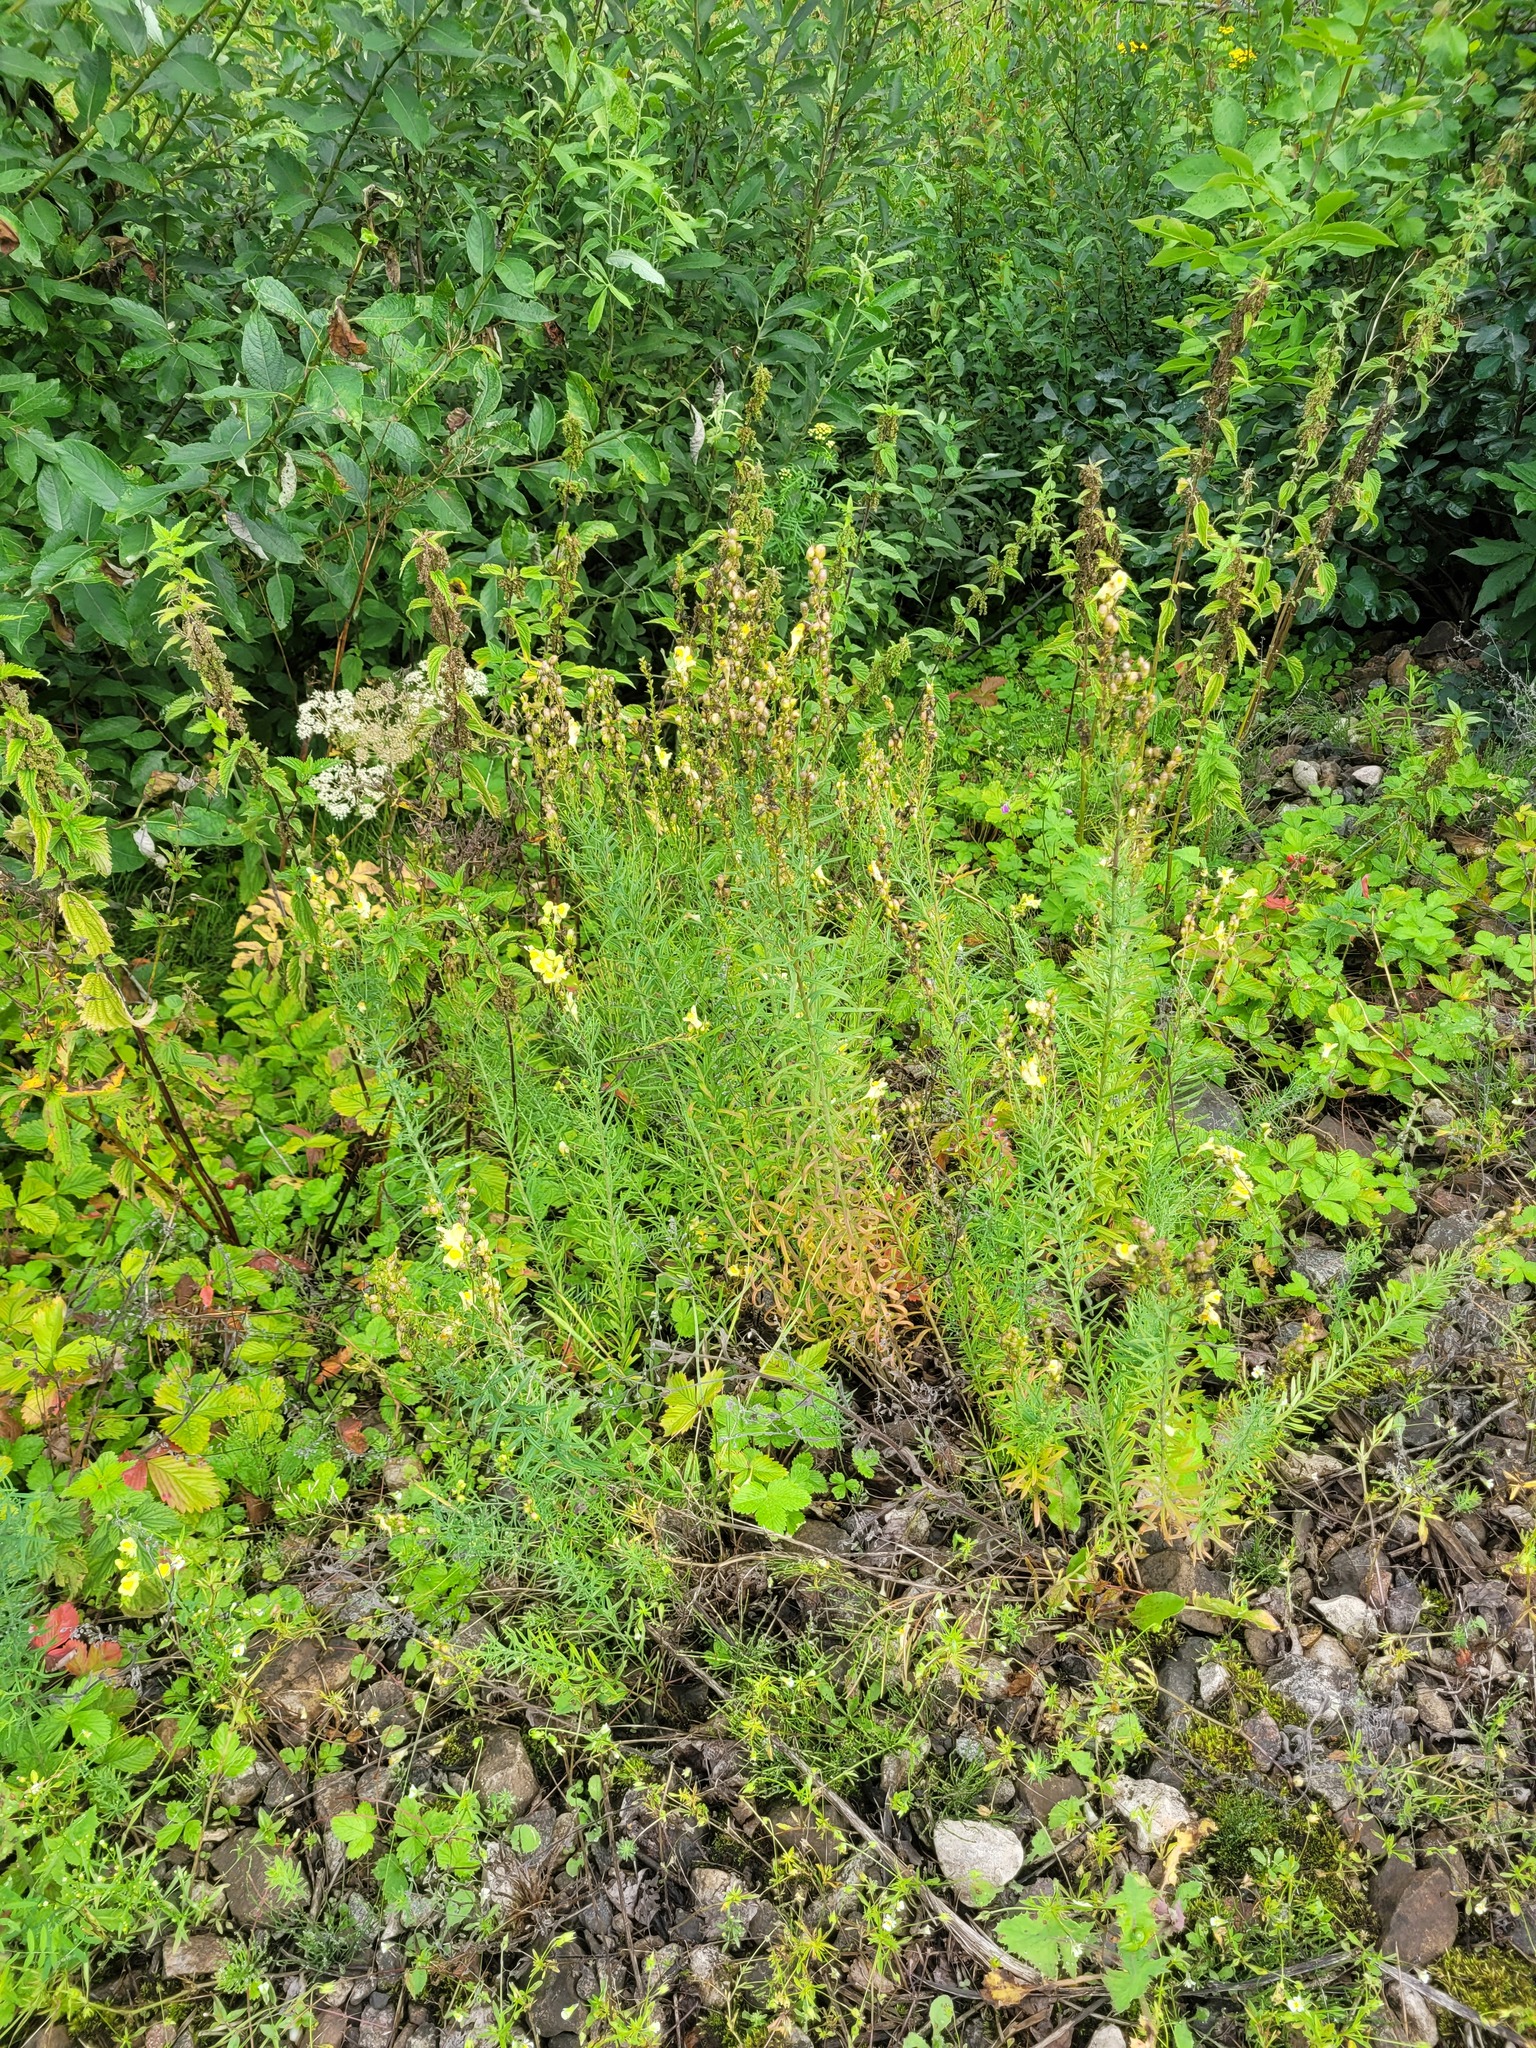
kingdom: Plantae
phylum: Tracheophyta
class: Magnoliopsida
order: Lamiales
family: Plantaginaceae
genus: Linaria
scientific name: Linaria vulgaris
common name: Butter and eggs
